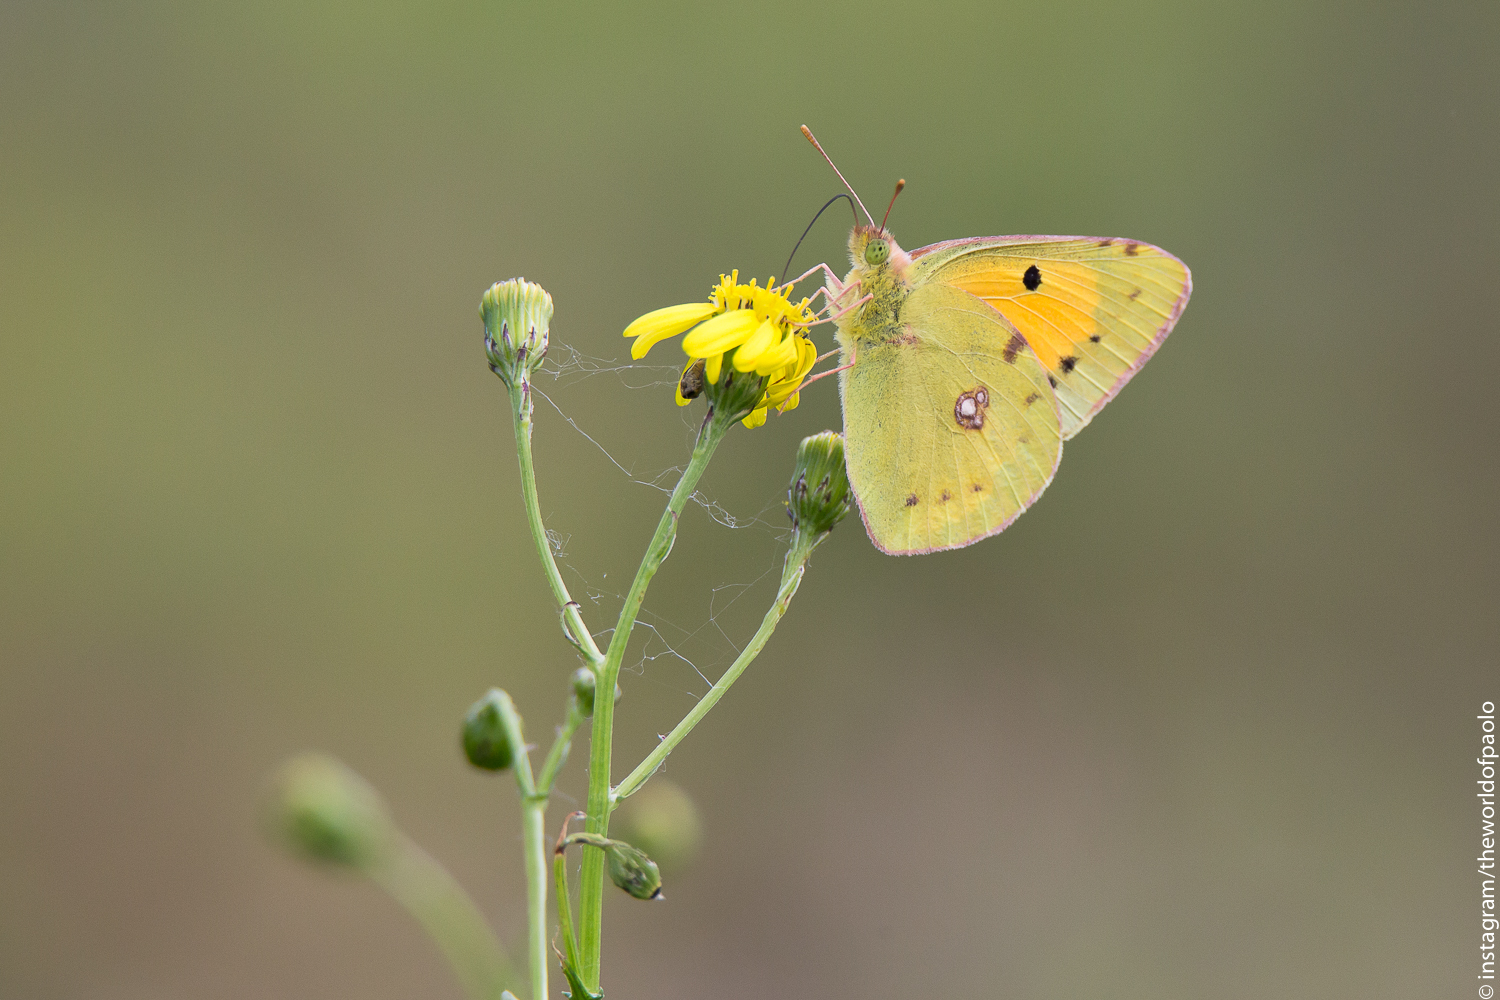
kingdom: Animalia
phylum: Arthropoda
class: Insecta
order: Lepidoptera
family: Pieridae
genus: Colias
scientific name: Colias croceus
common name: Clouded yellow
